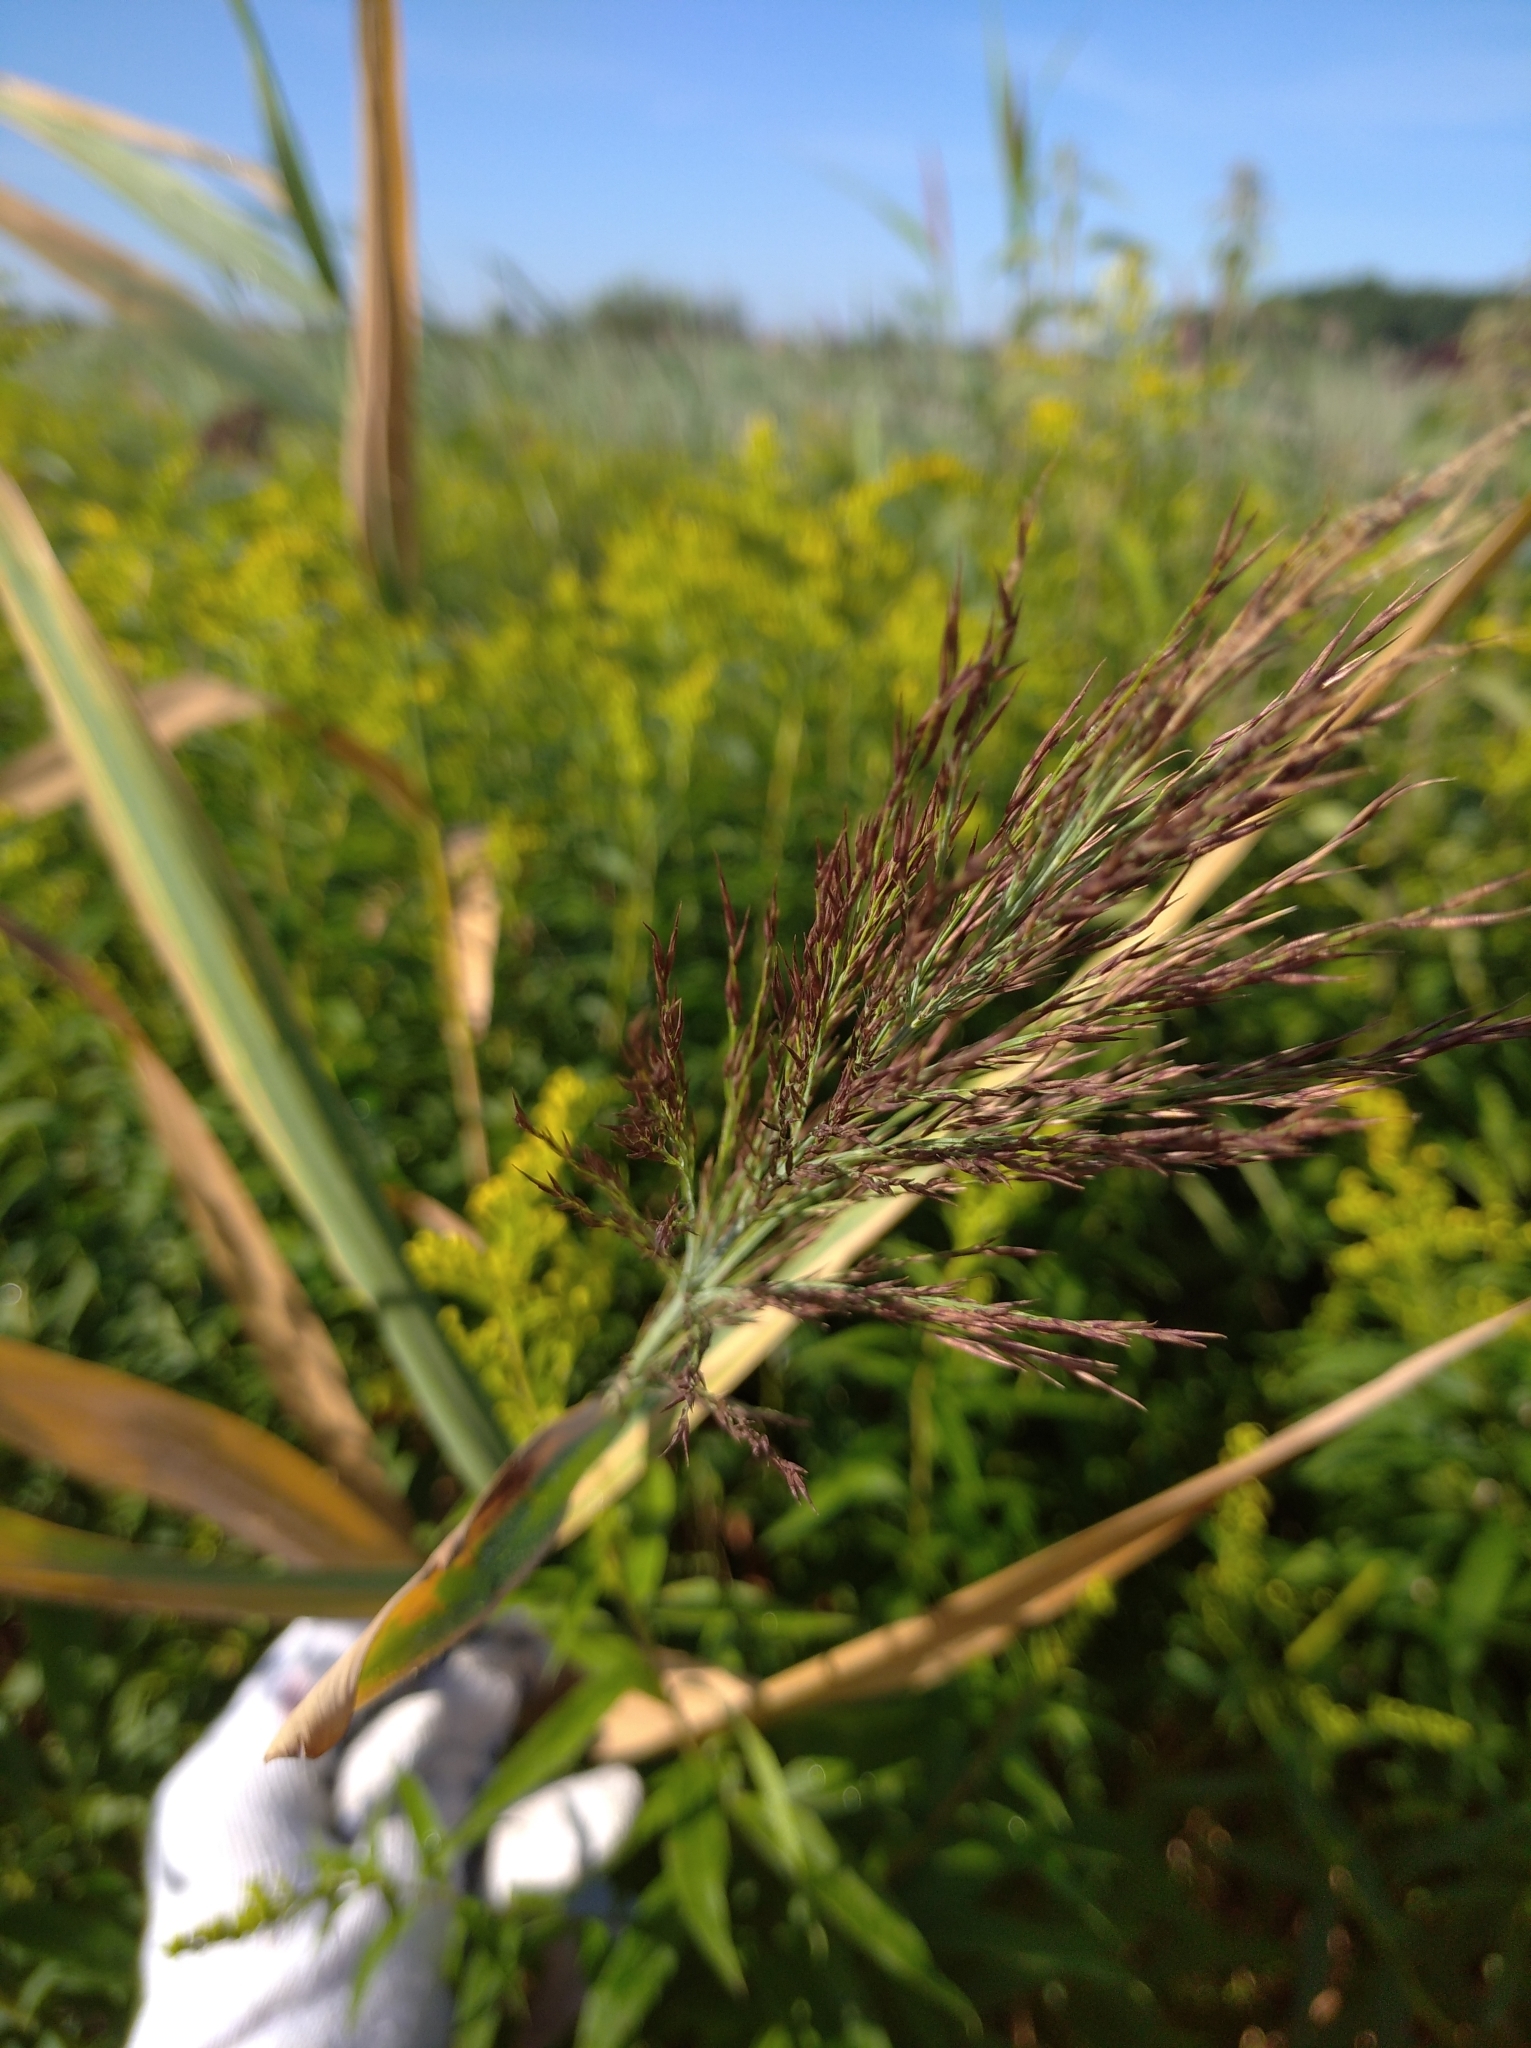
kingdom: Plantae
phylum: Tracheophyta
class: Liliopsida
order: Poales
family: Poaceae
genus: Phragmites
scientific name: Phragmites australis
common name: Common reed
